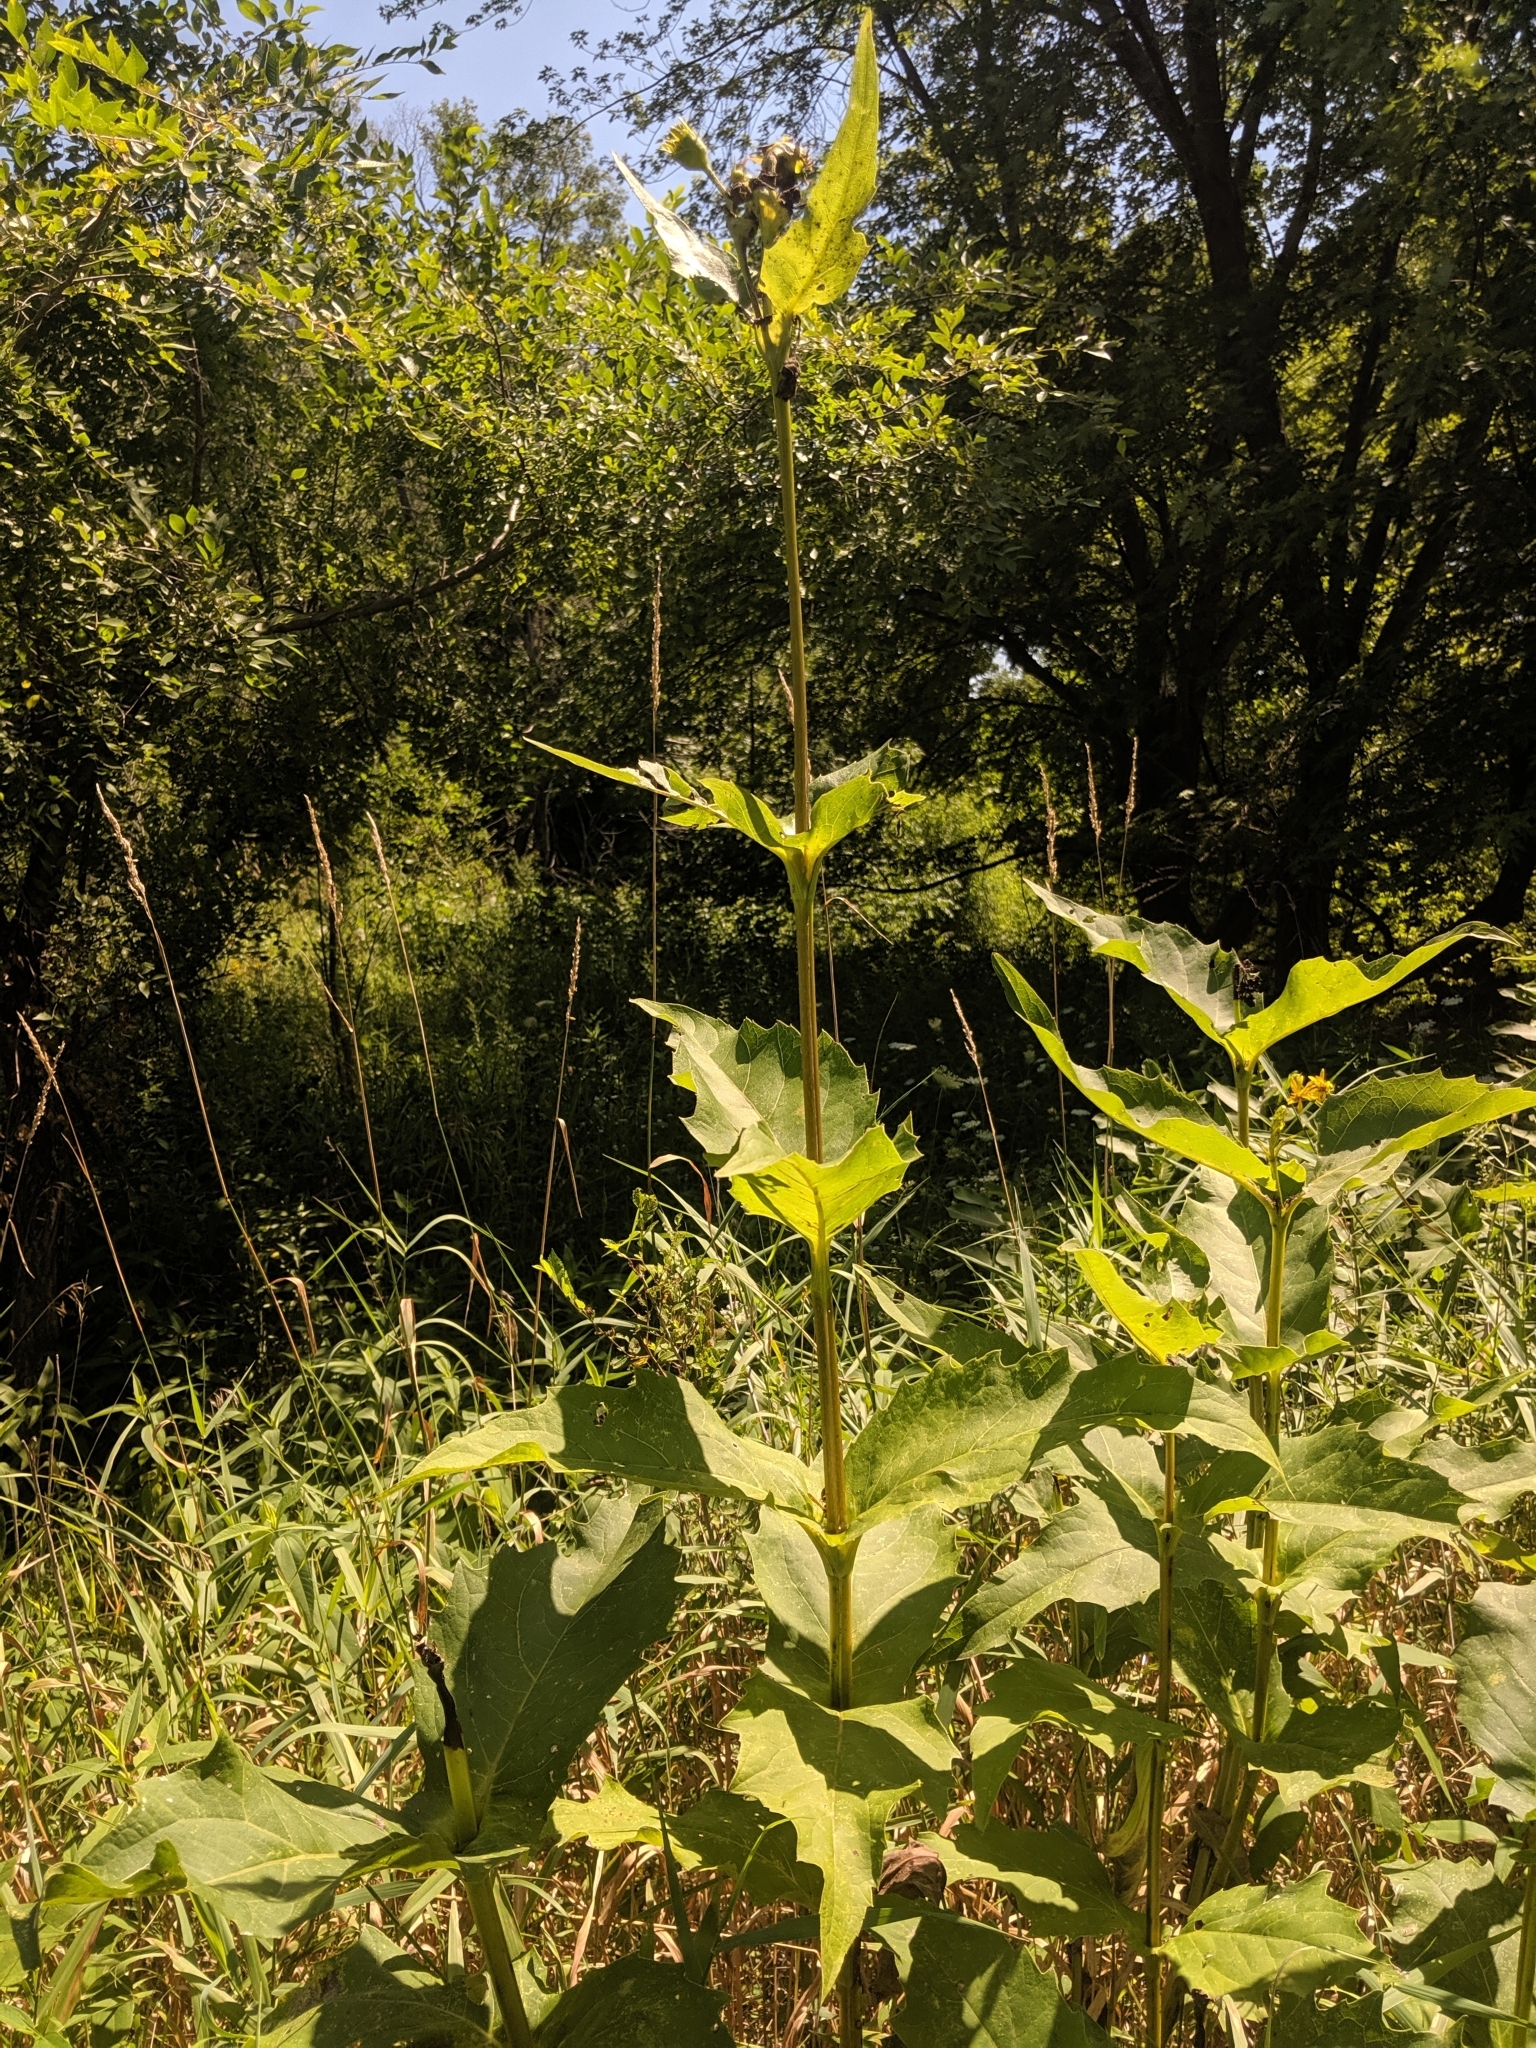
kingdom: Plantae
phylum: Tracheophyta
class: Magnoliopsida
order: Asterales
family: Asteraceae
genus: Silphium
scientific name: Silphium perfoliatum
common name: Cup-plant
